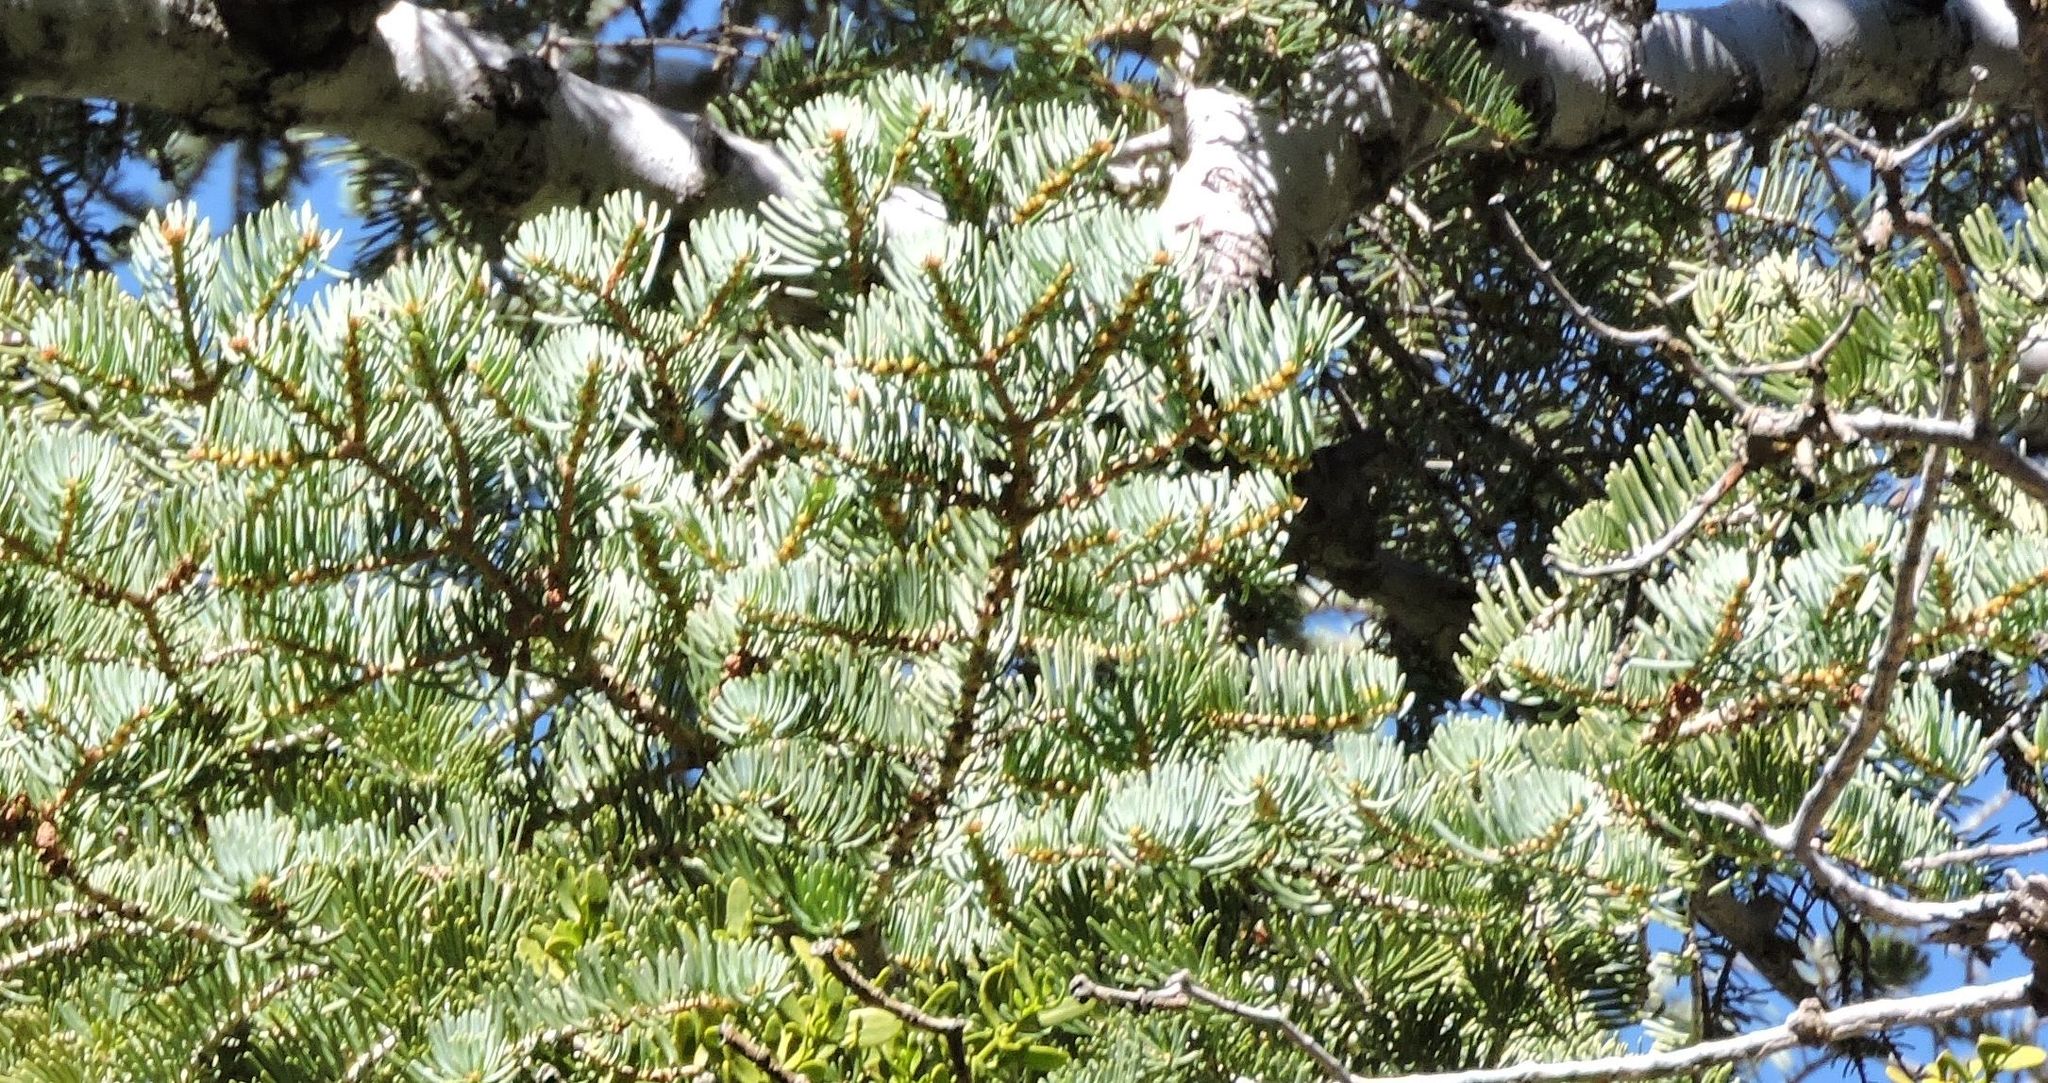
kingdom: Plantae
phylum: Tracheophyta
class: Pinopsida
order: Pinales
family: Pinaceae
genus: Abies
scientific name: Abies concolor
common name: Colorado fir
